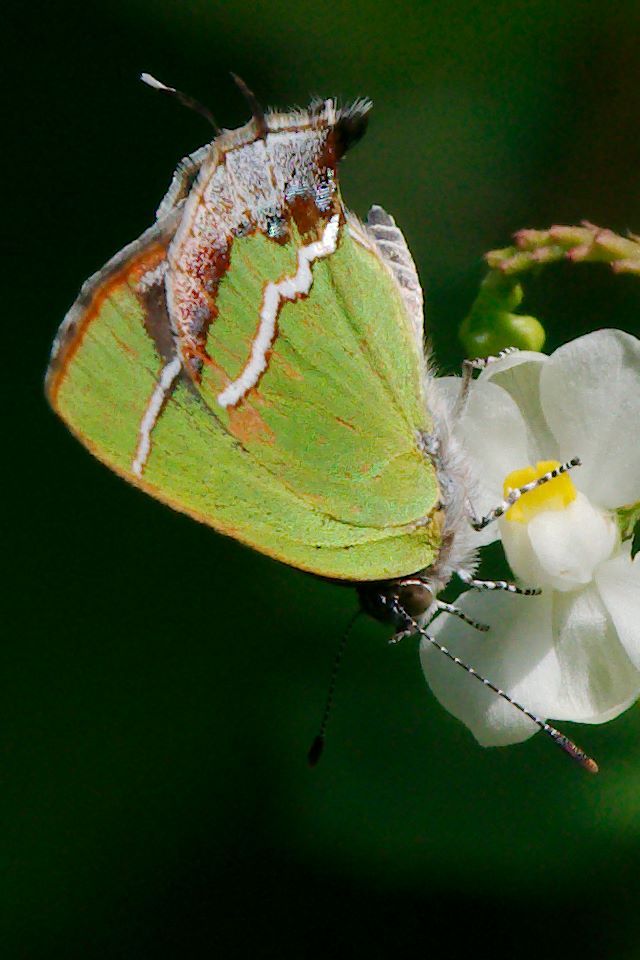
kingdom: Animalia
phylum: Arthropoda
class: Insecta
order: Lepidoptera
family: Lycaenidae
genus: Chlorostrymon
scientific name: Chlorostrymon simaethis
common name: Silver-banded hairstreak
